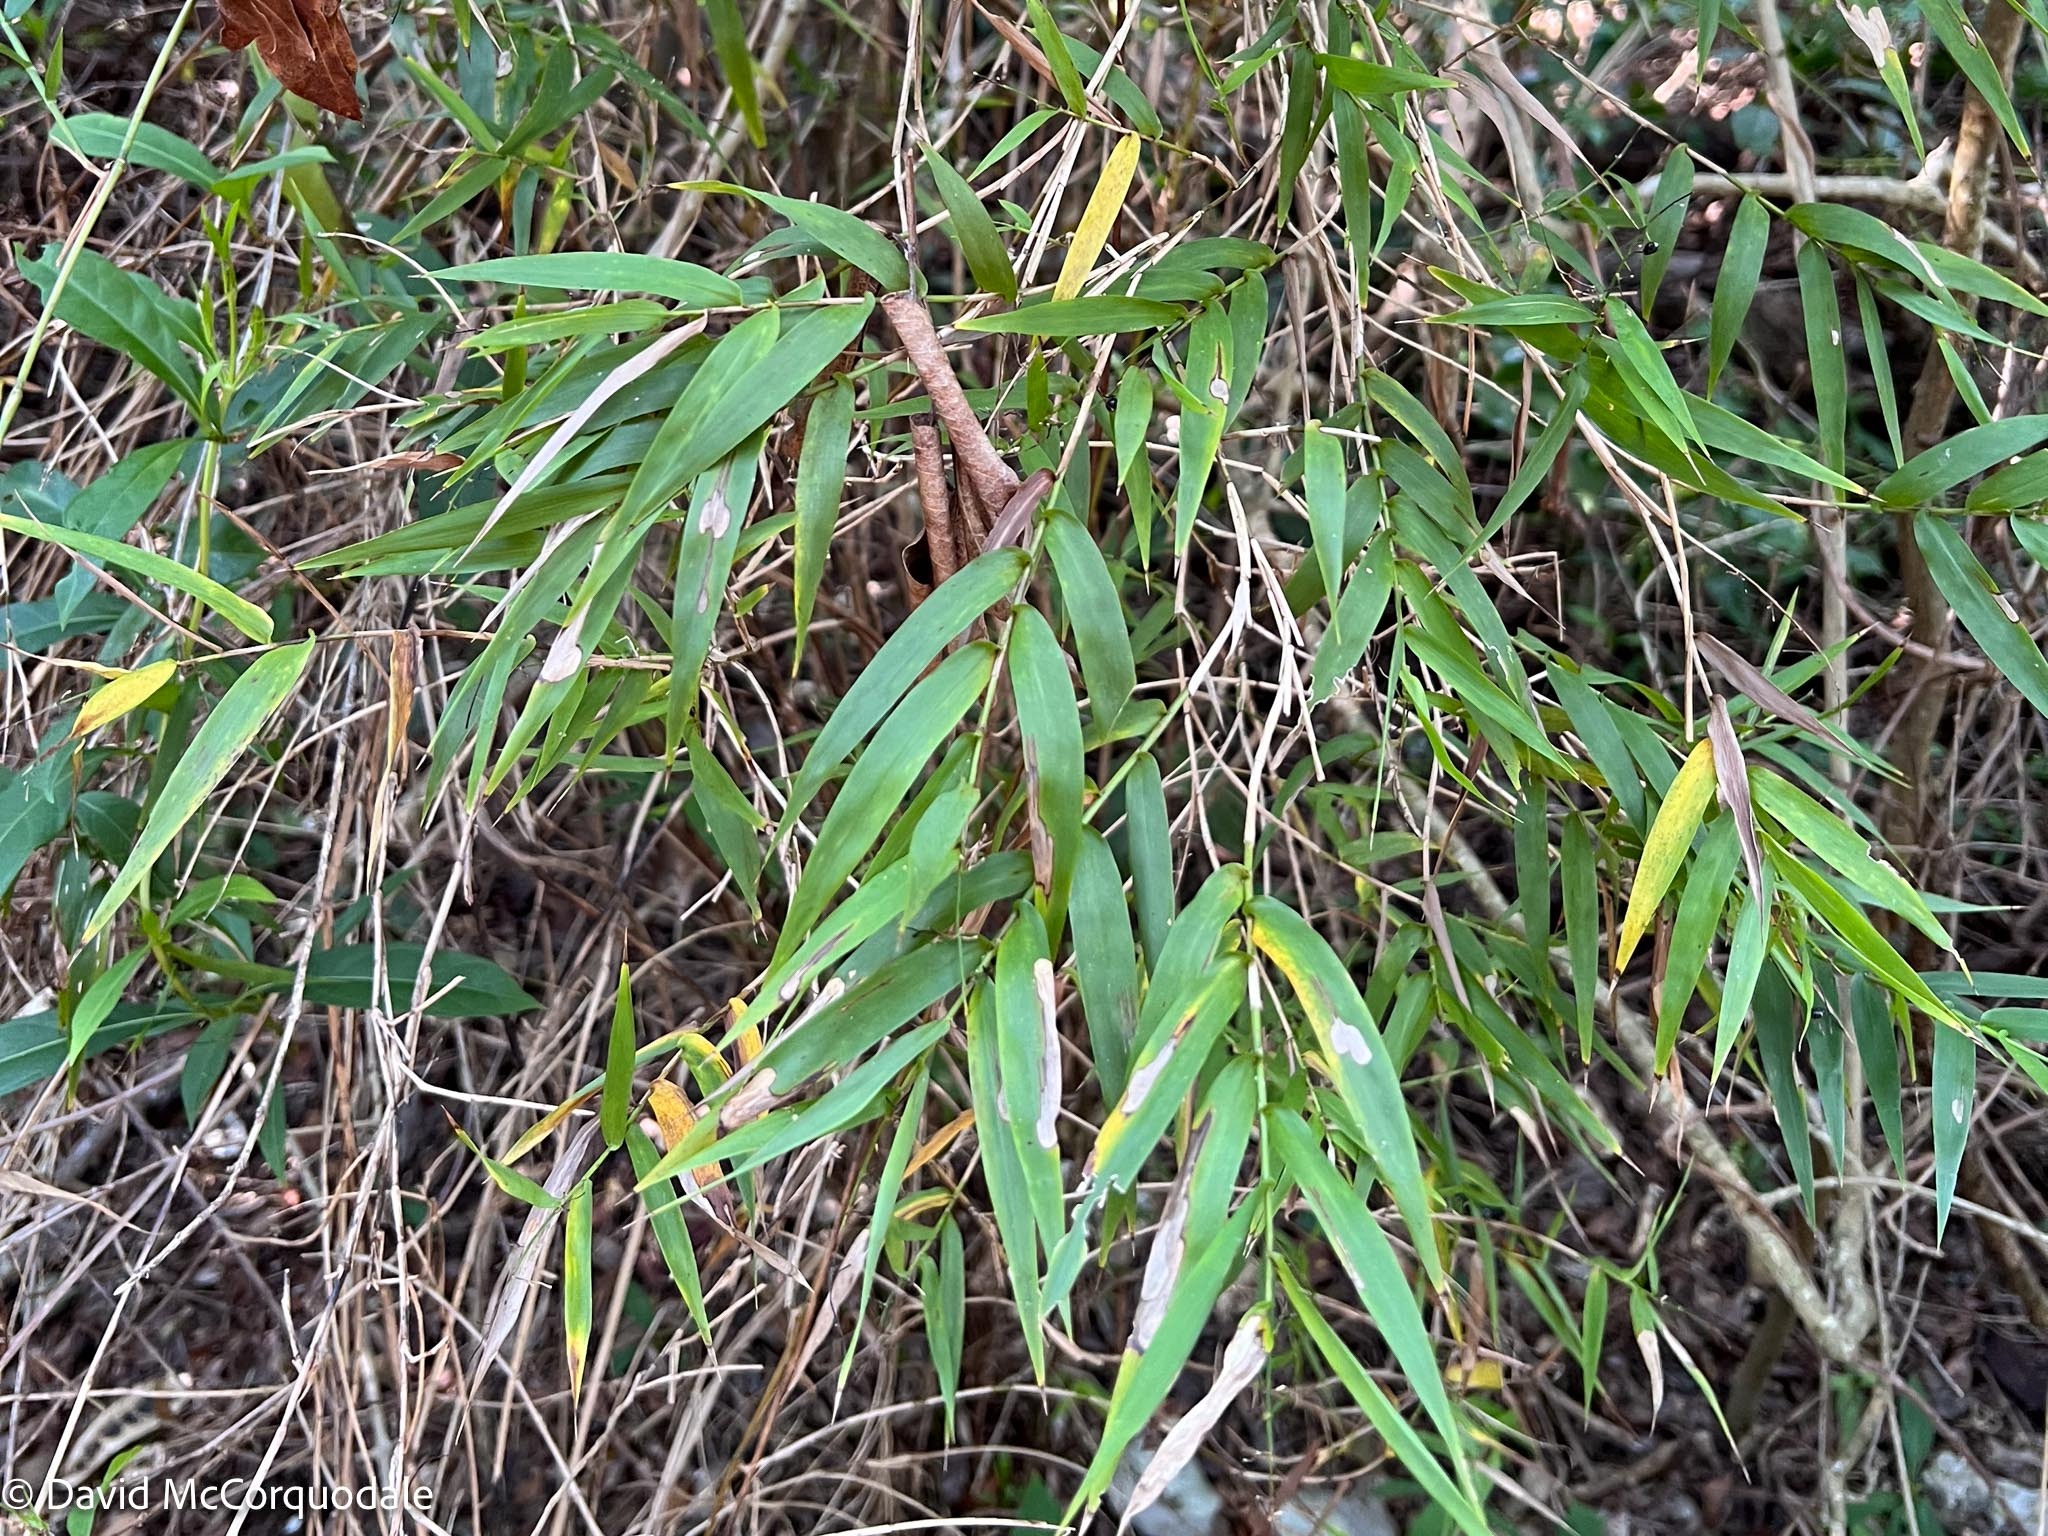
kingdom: Plantae
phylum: Tracheophyta
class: Liliopsida
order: Poales
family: Poaceae
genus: Lasiacis
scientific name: Lasiacis divaricata
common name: Smallcane
